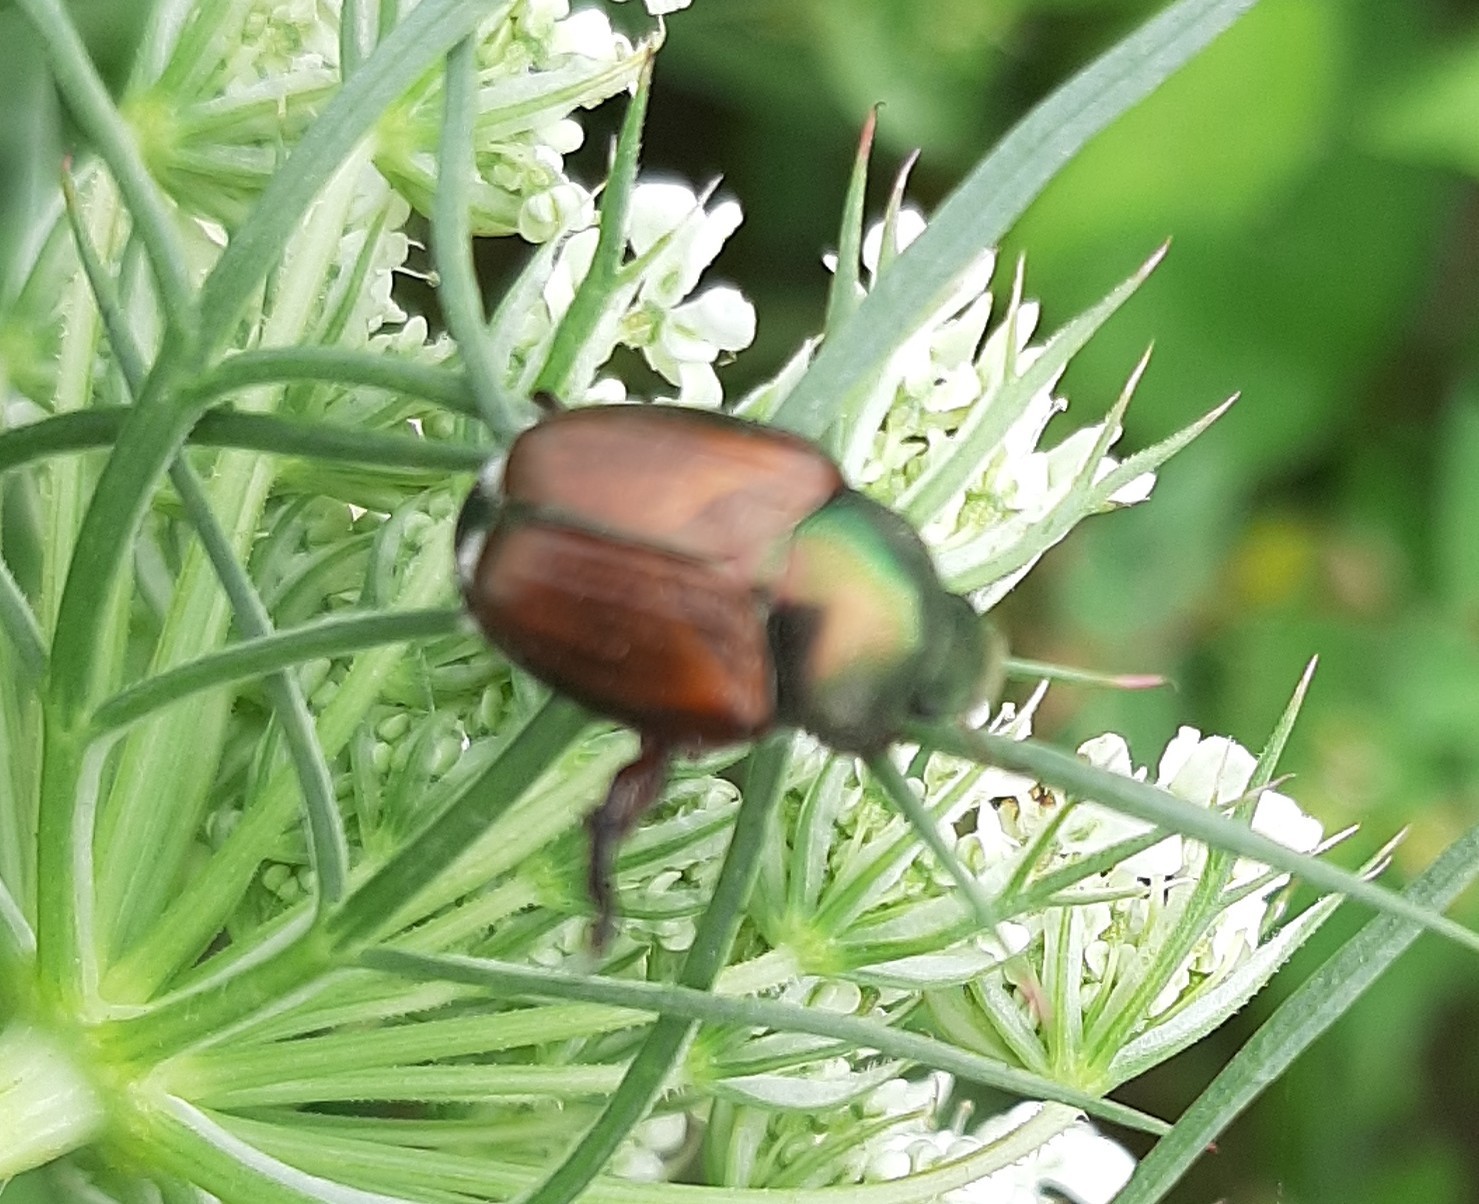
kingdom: Animalia
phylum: Arthropoda
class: Insecta
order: Coleoptera
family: Scarabaeidae
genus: Popillia
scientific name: Popillia japonica
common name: Japanese beetle
